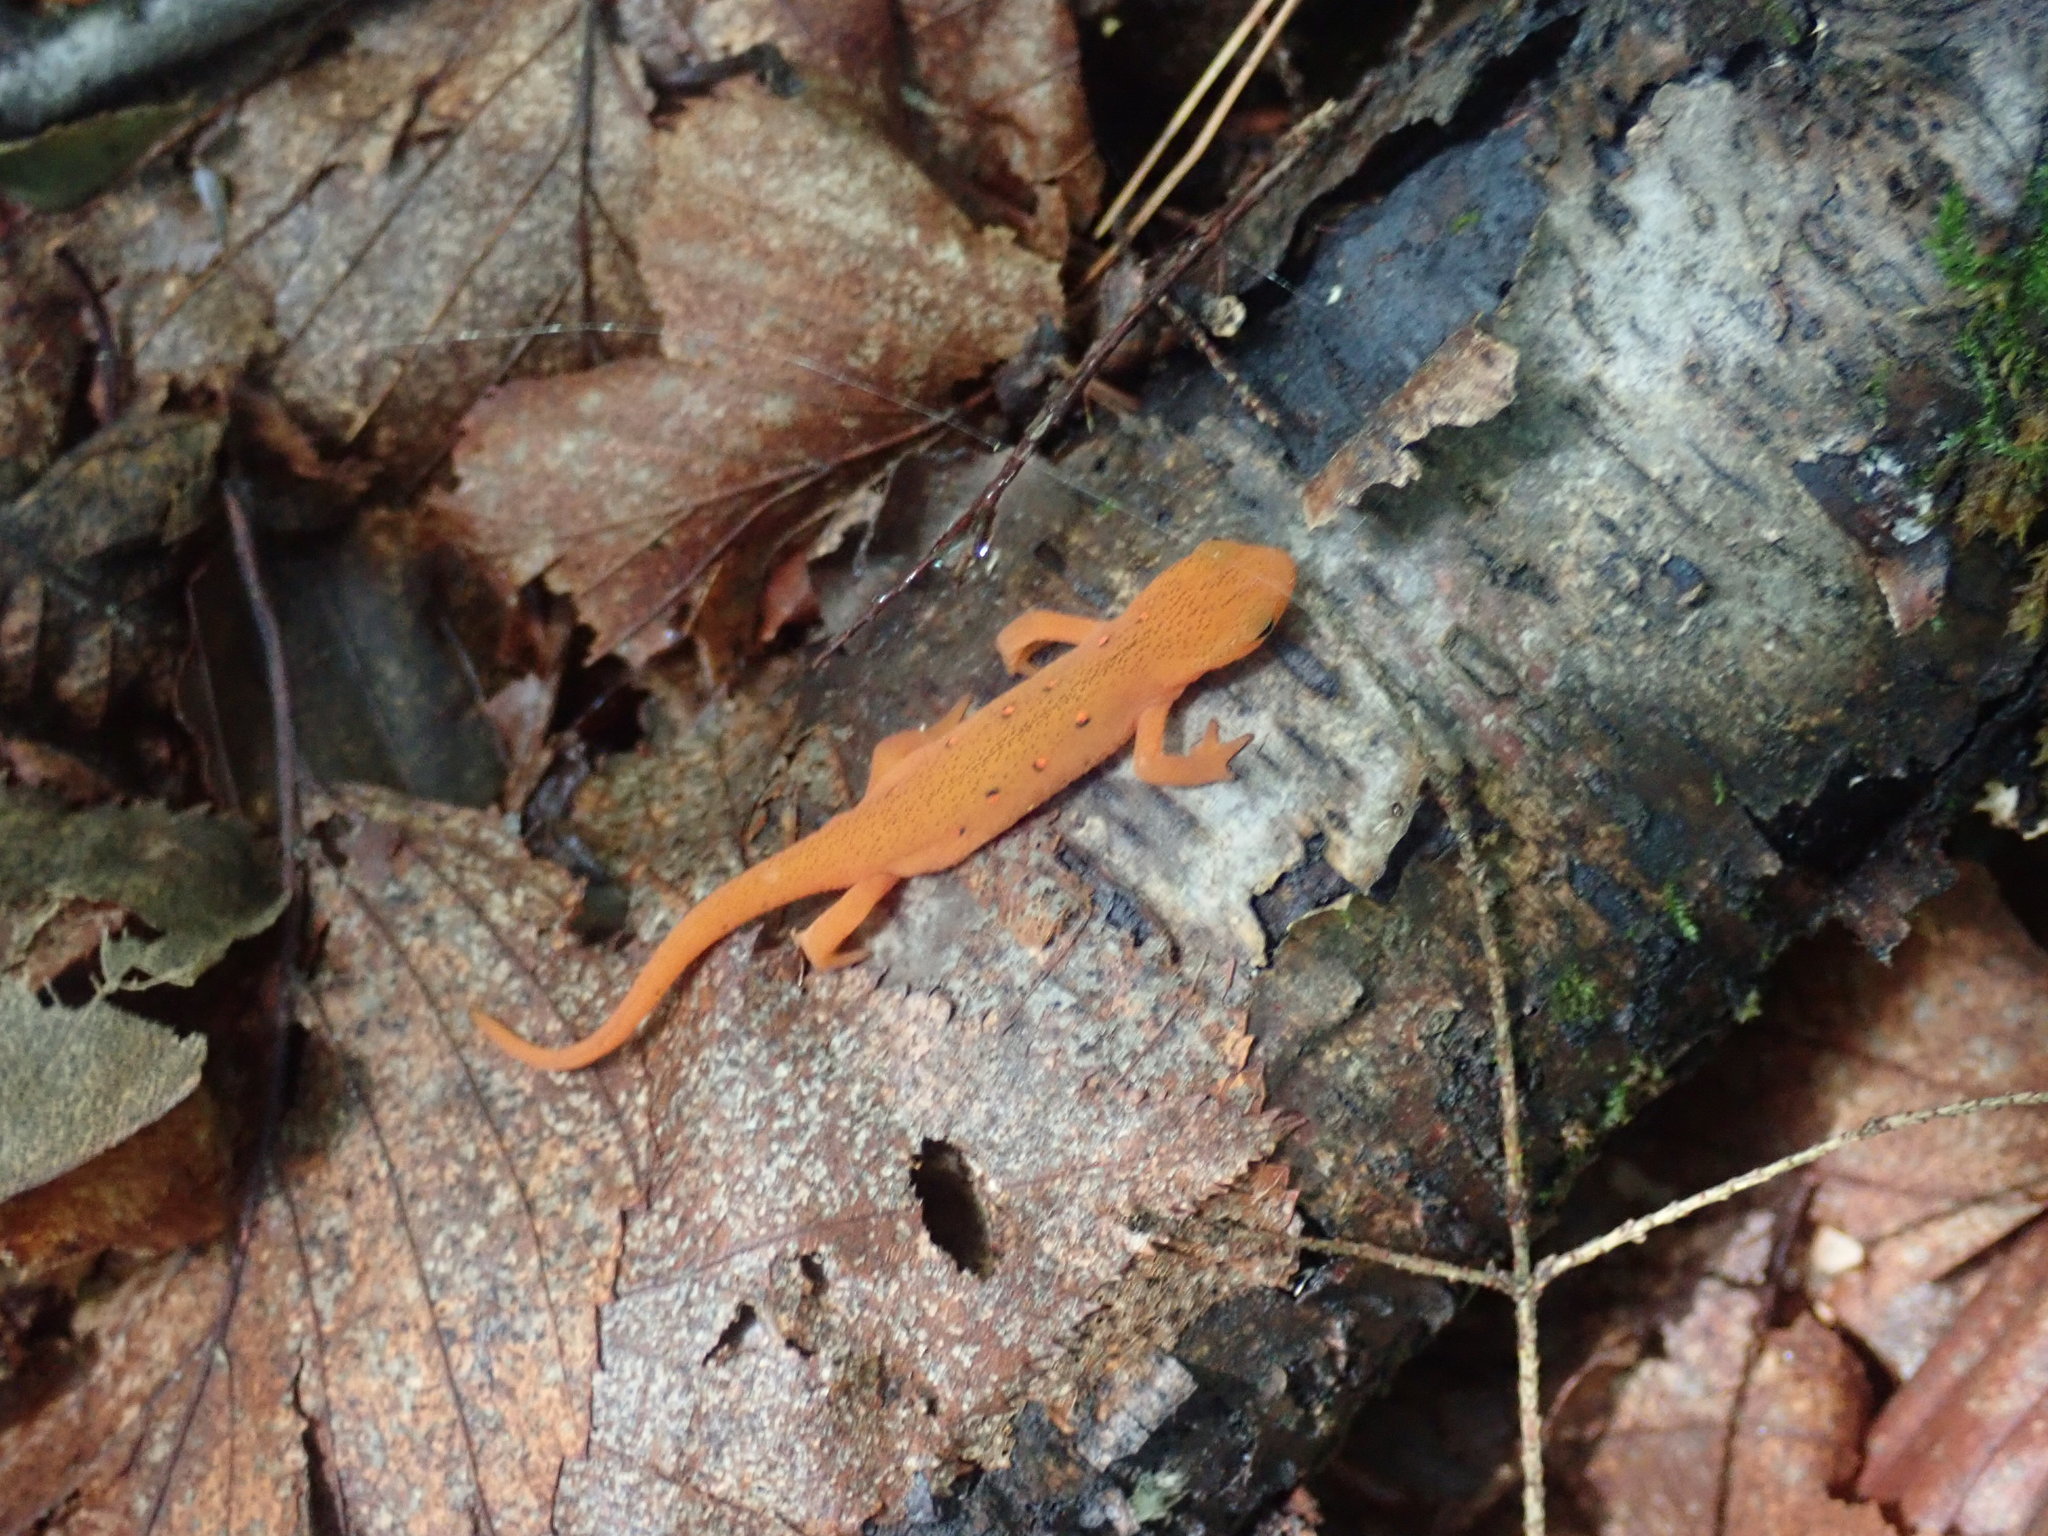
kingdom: Animalia
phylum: Chordata
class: Amphibia
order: Caudata
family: Salamandridae
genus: Notophthalmus
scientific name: Notophthalmus viridescens
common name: Eastern newt
